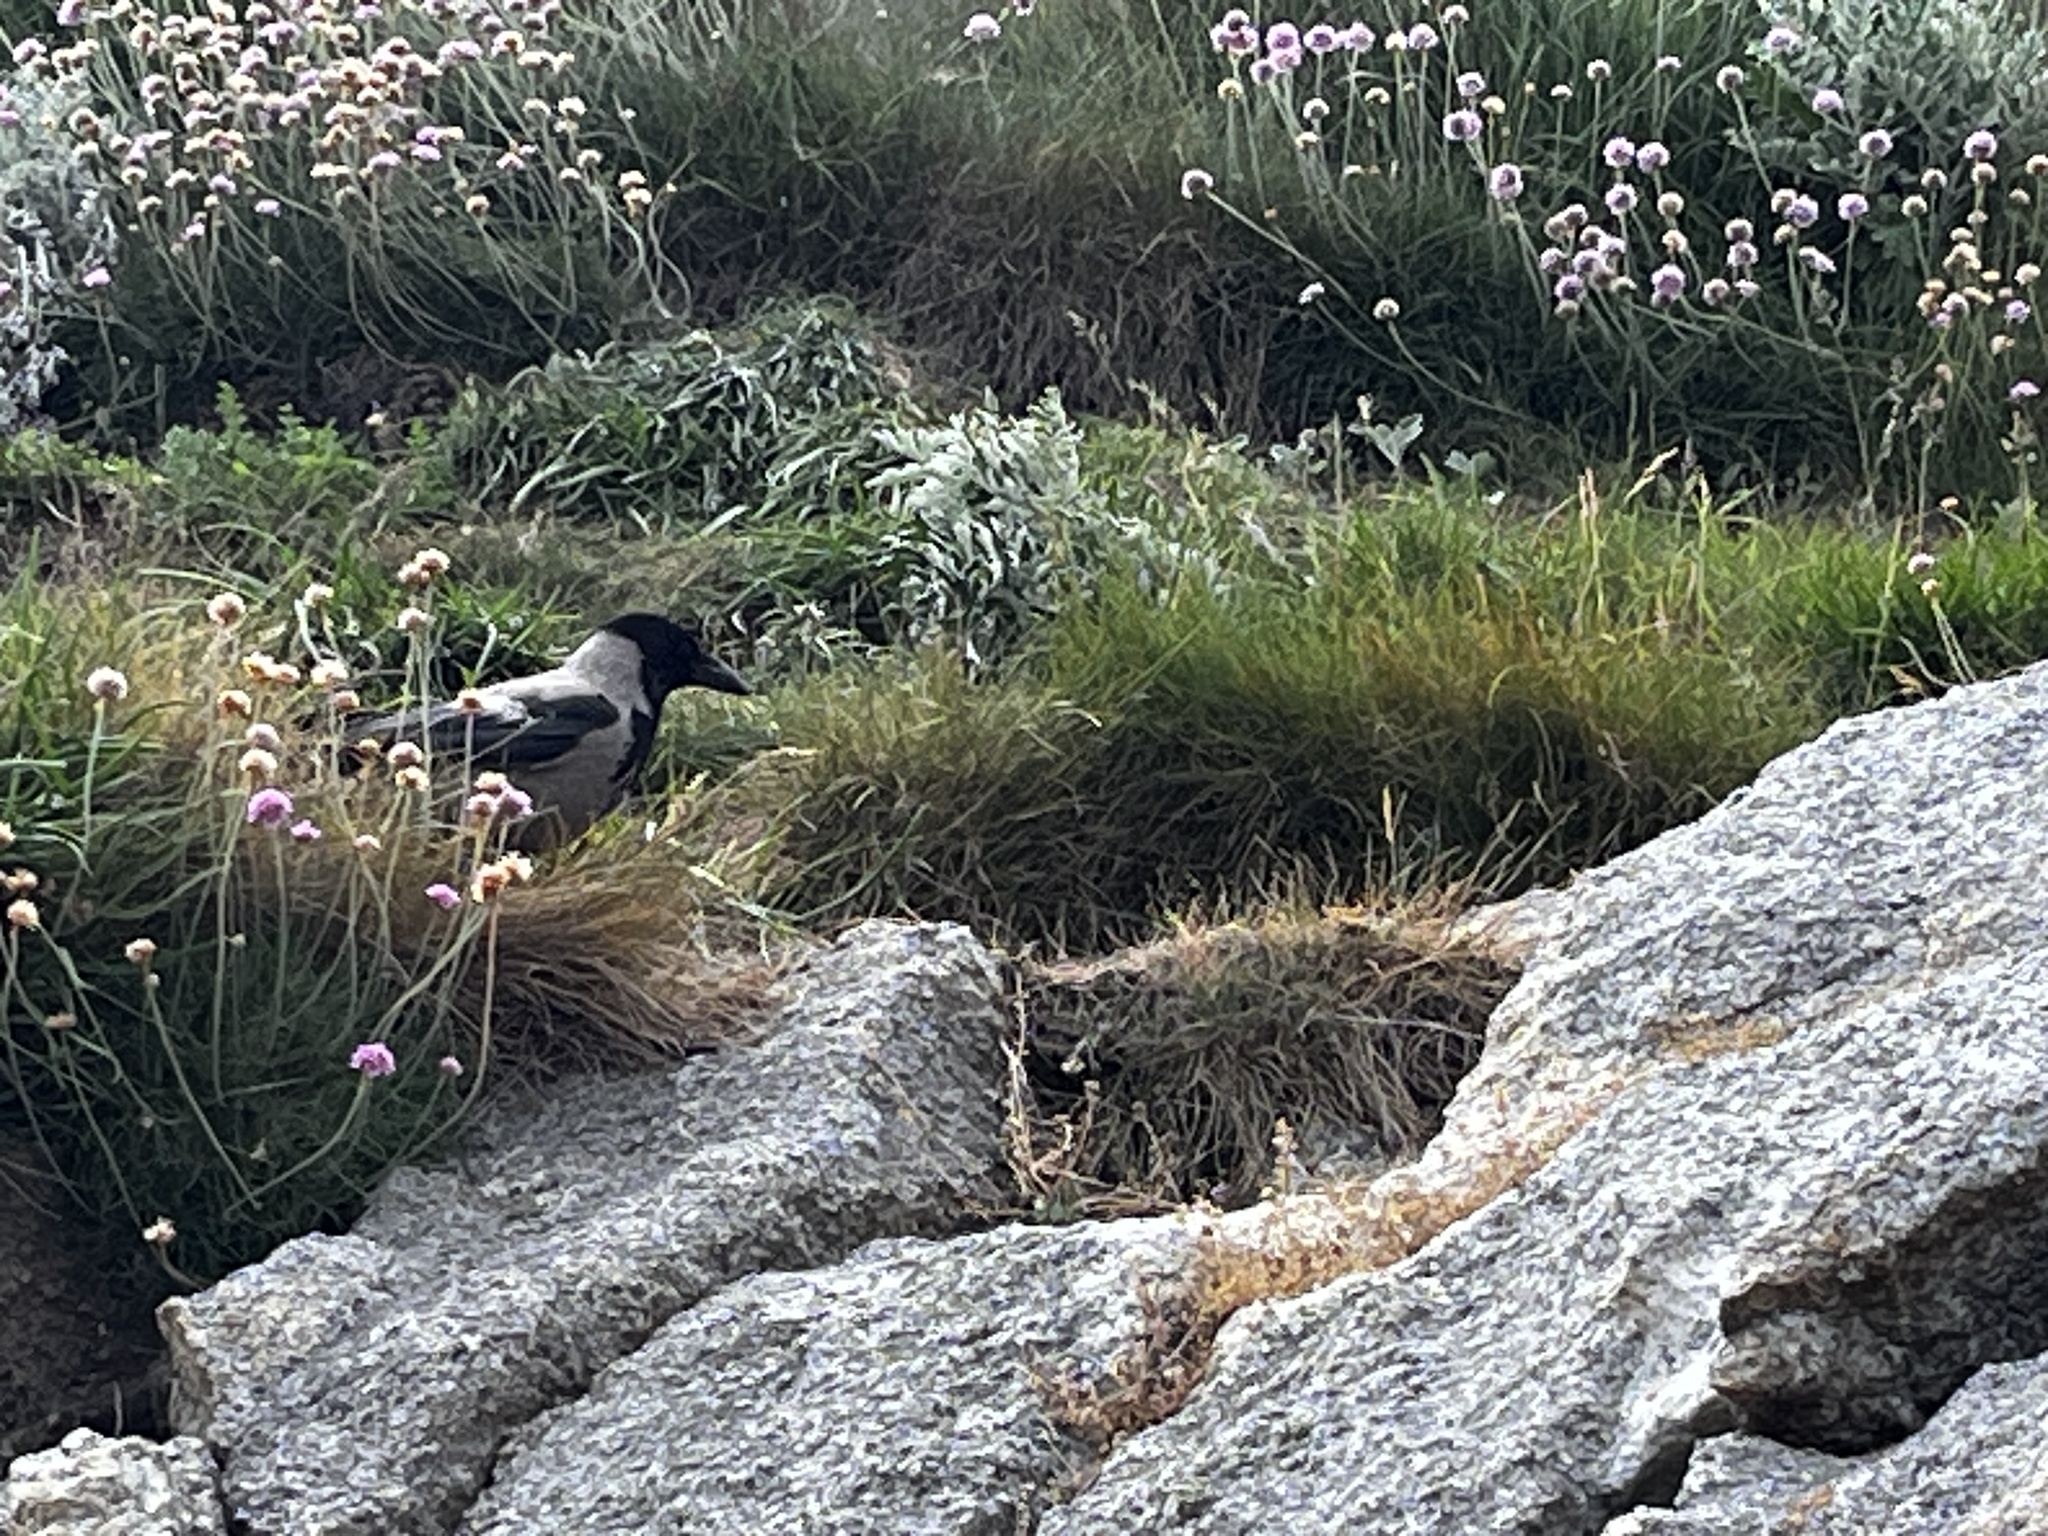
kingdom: Animalia
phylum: Chordata
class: Aves
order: Passeriformes
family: Corvidae
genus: Corvus
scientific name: Corvus cornix
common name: Hooded crow
